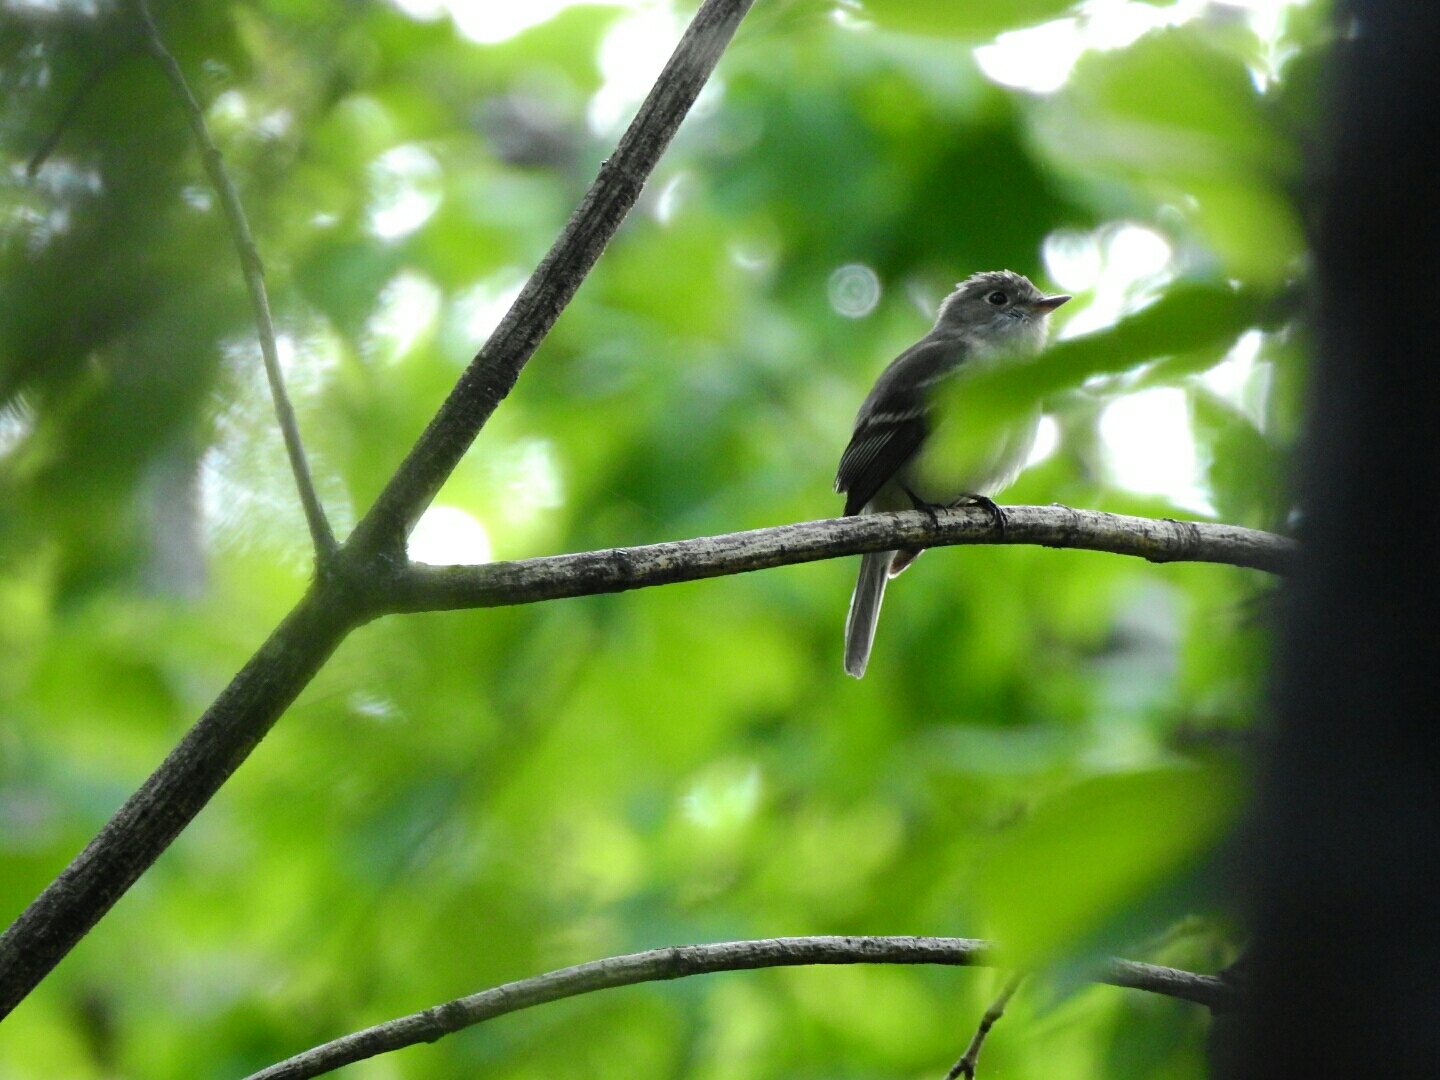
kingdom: Animalia
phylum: Chordata
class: Aves
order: Passeriformes
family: Tyrannidae
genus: Empidonax
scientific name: Empidonax minimus
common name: Least flycatcher
